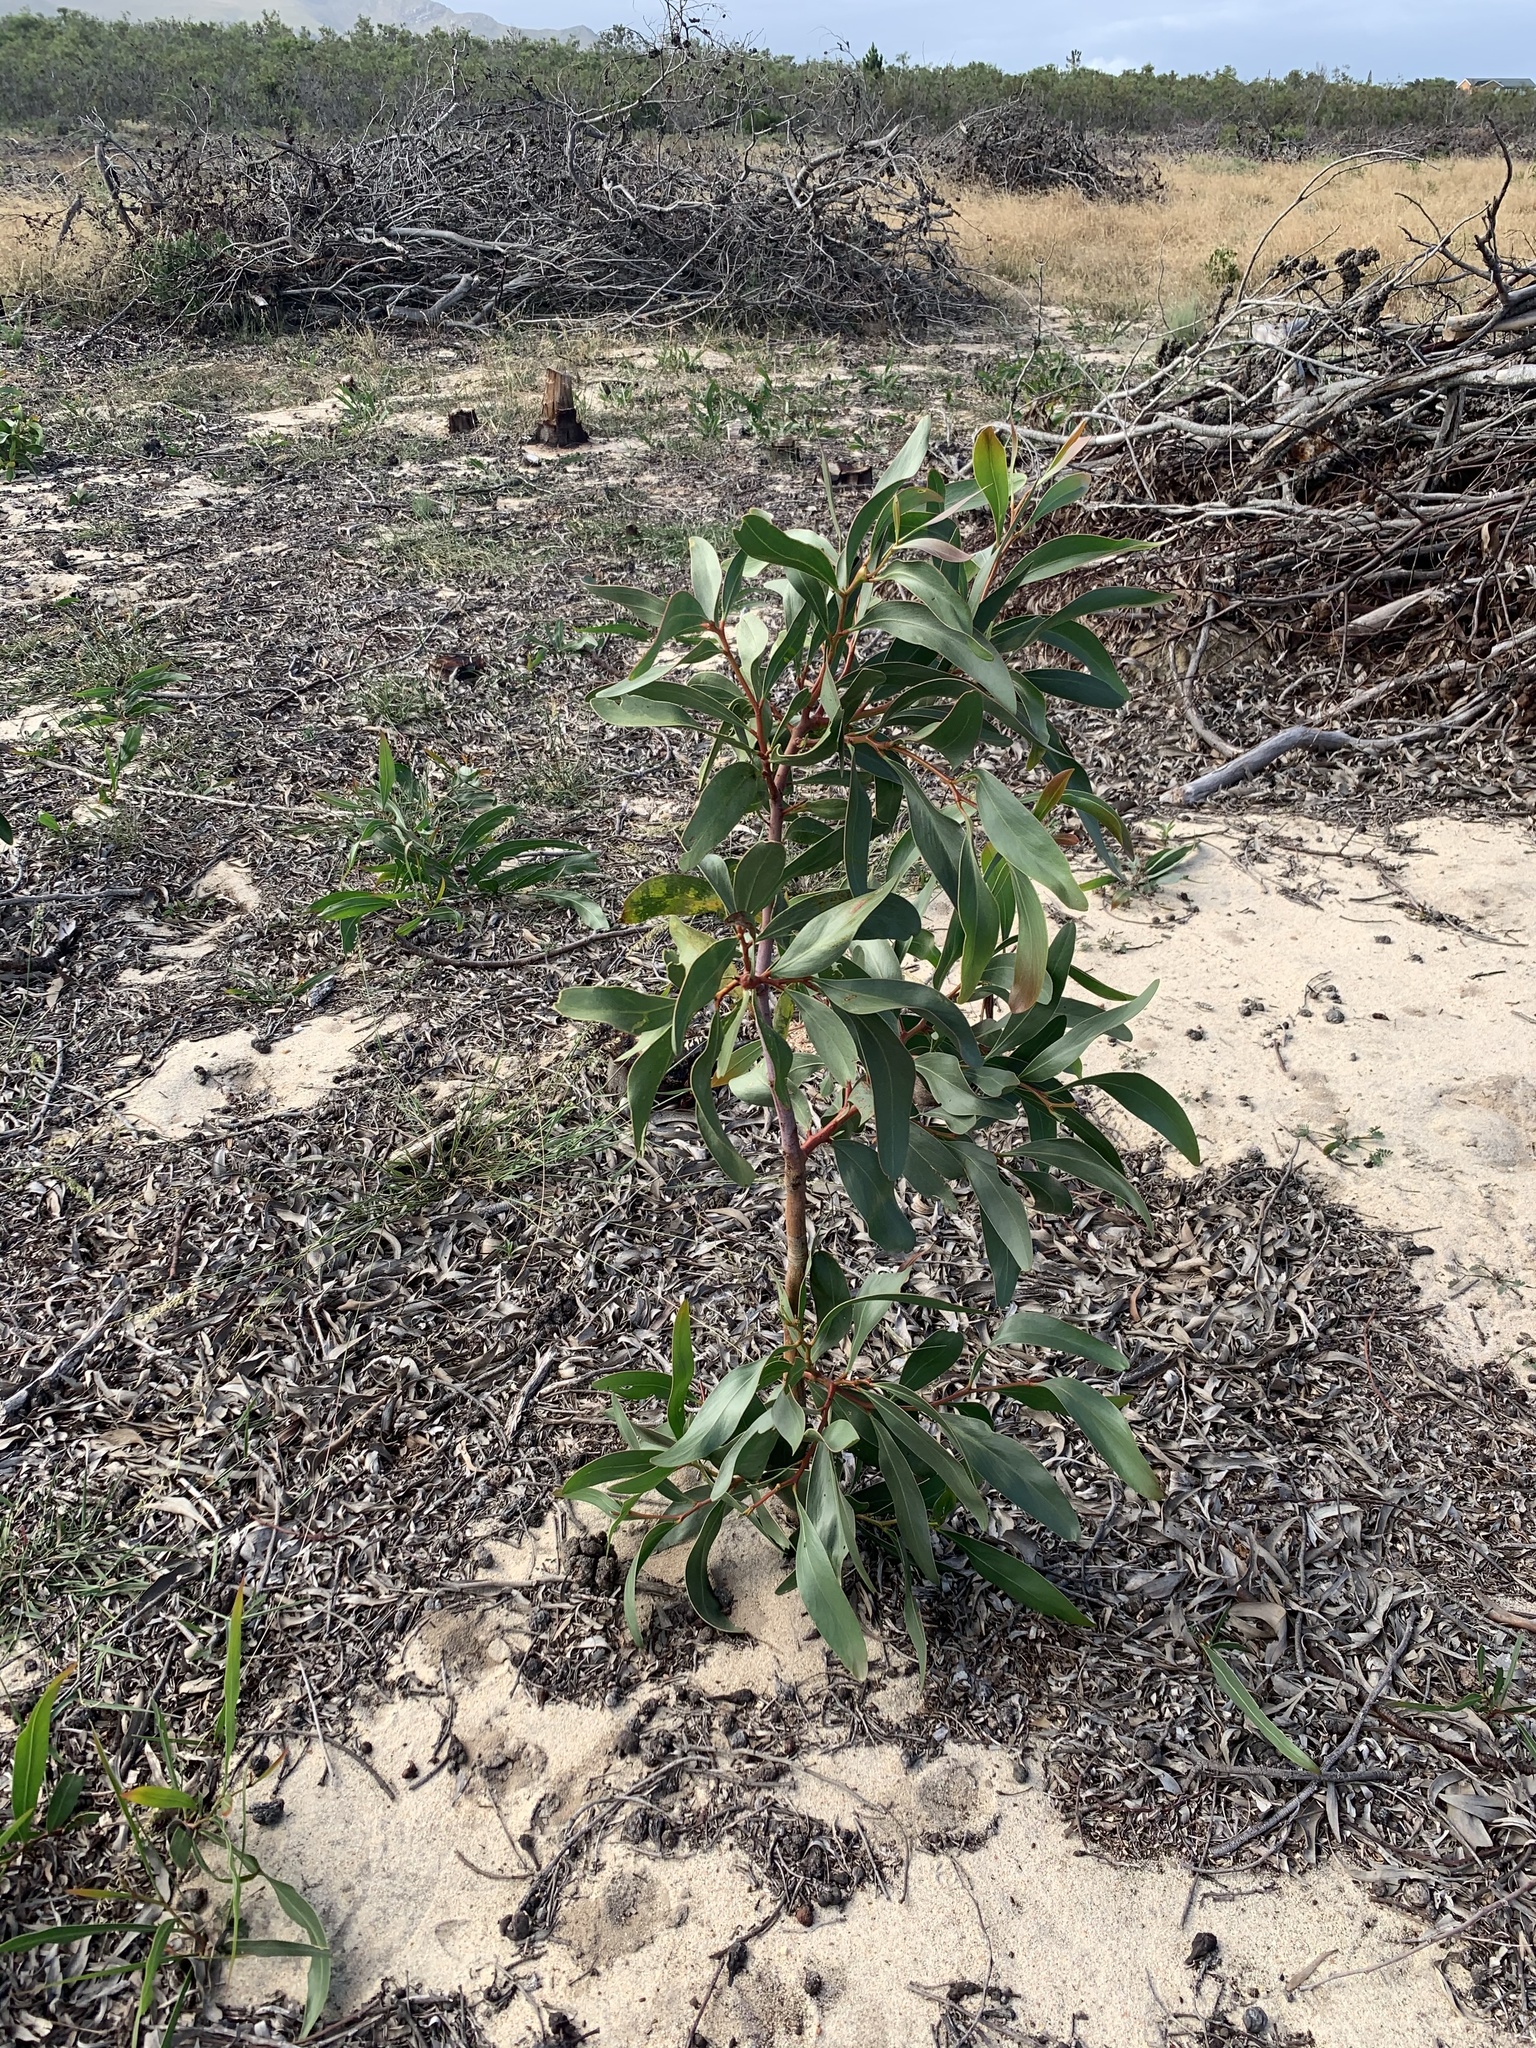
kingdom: Plantae
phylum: Tracheophyta
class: Magnoliopsida
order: Fabales
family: Fabaceae
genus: Acacia
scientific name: Acacia pycnantha
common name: Golden wattle
